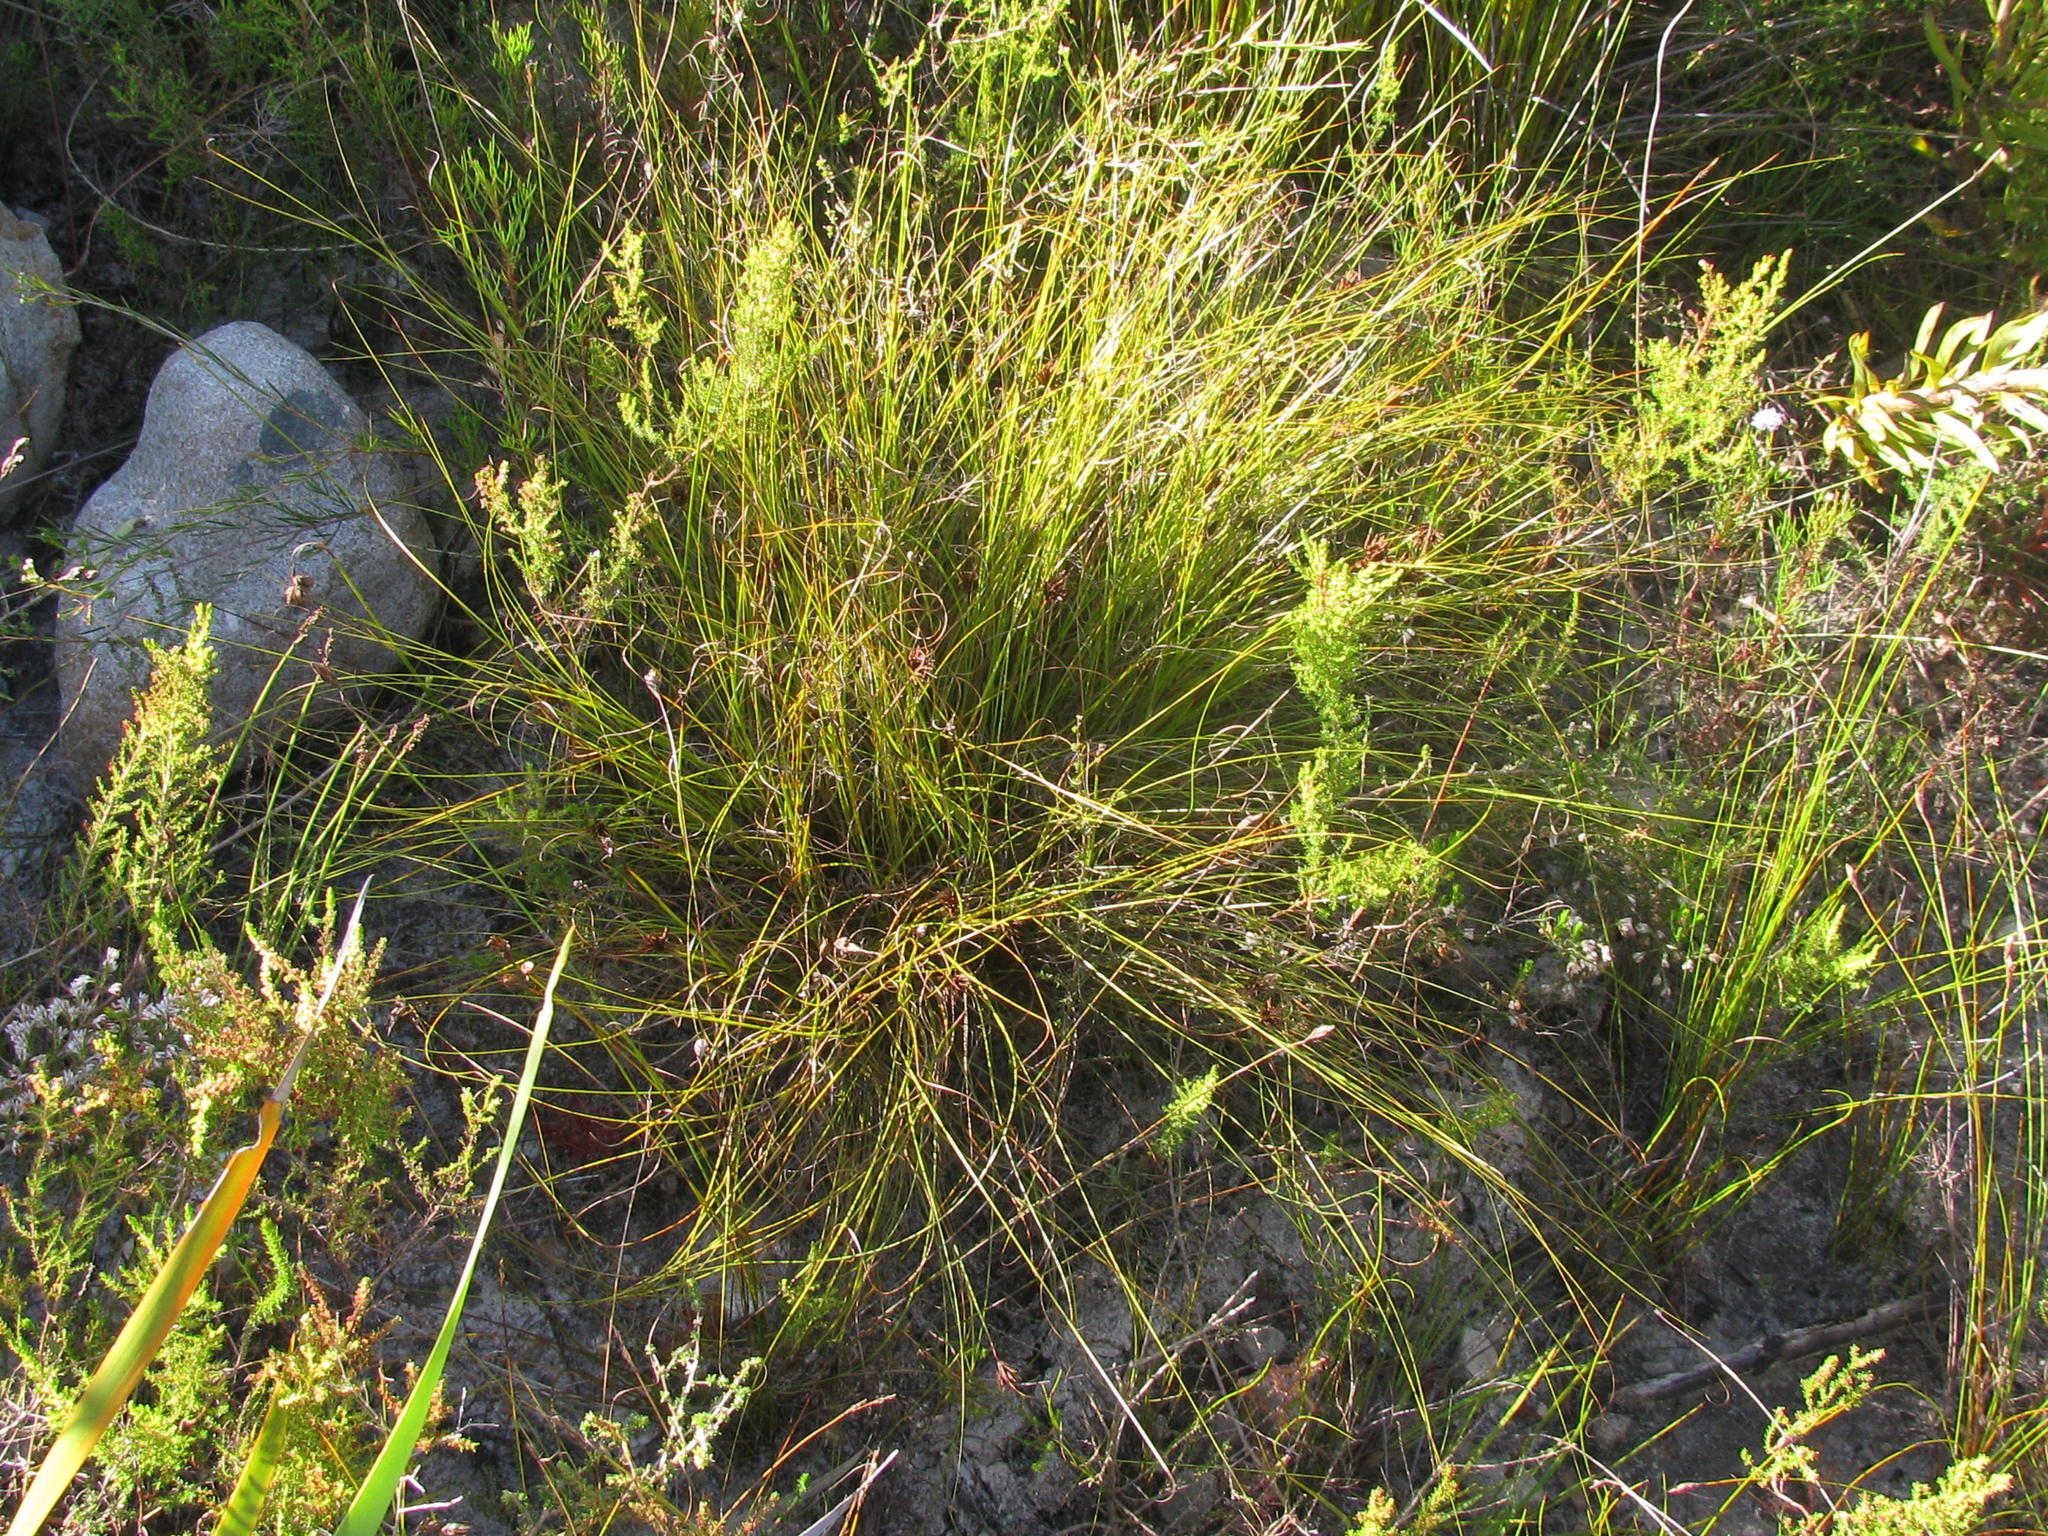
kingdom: Plantae
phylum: Tracheophyta
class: Liliopsida
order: Poales
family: Cyperaceae
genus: Tetraria
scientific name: Tetraria crinifolia
